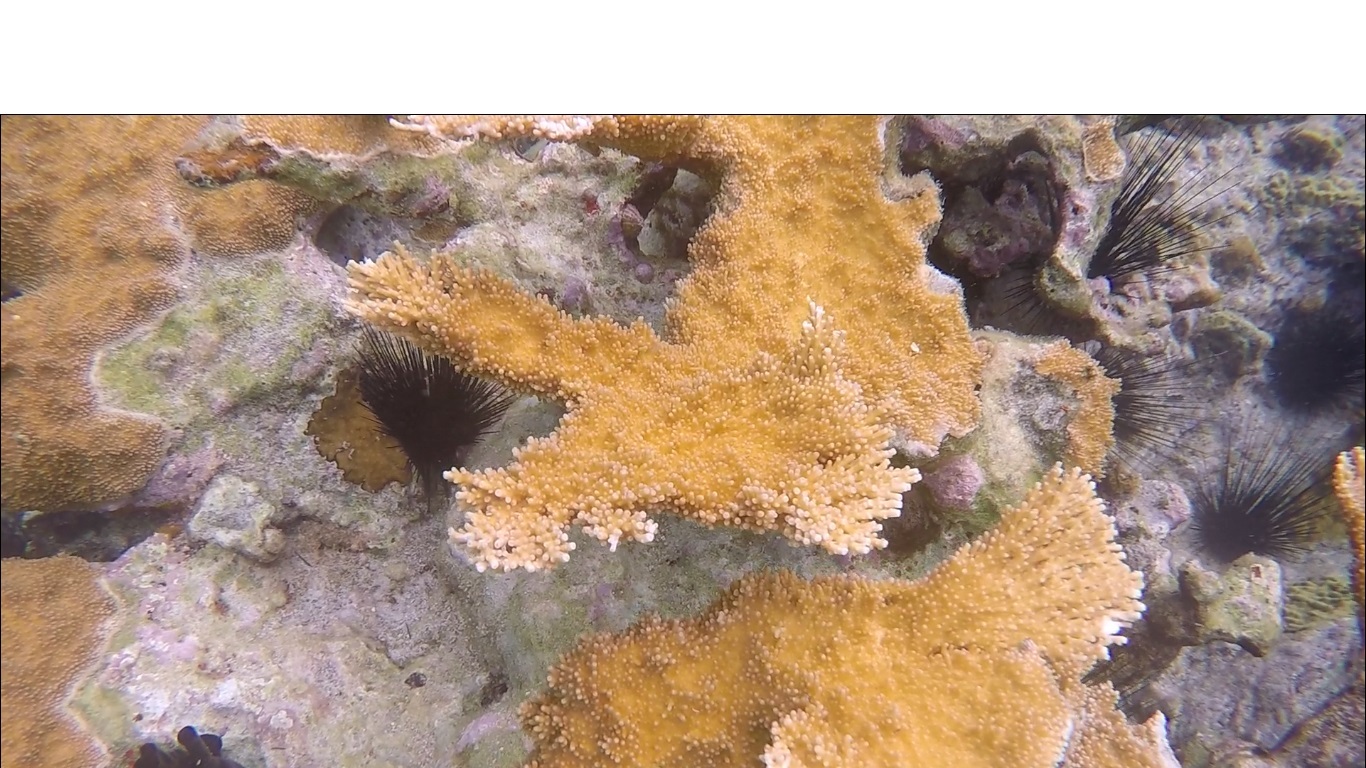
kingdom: Animalia
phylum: Cnidaria
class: Anthozoa
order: Scleractinia
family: Acroporidae
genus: Acropora
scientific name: Acropora palmata
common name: Elkhorn coral
